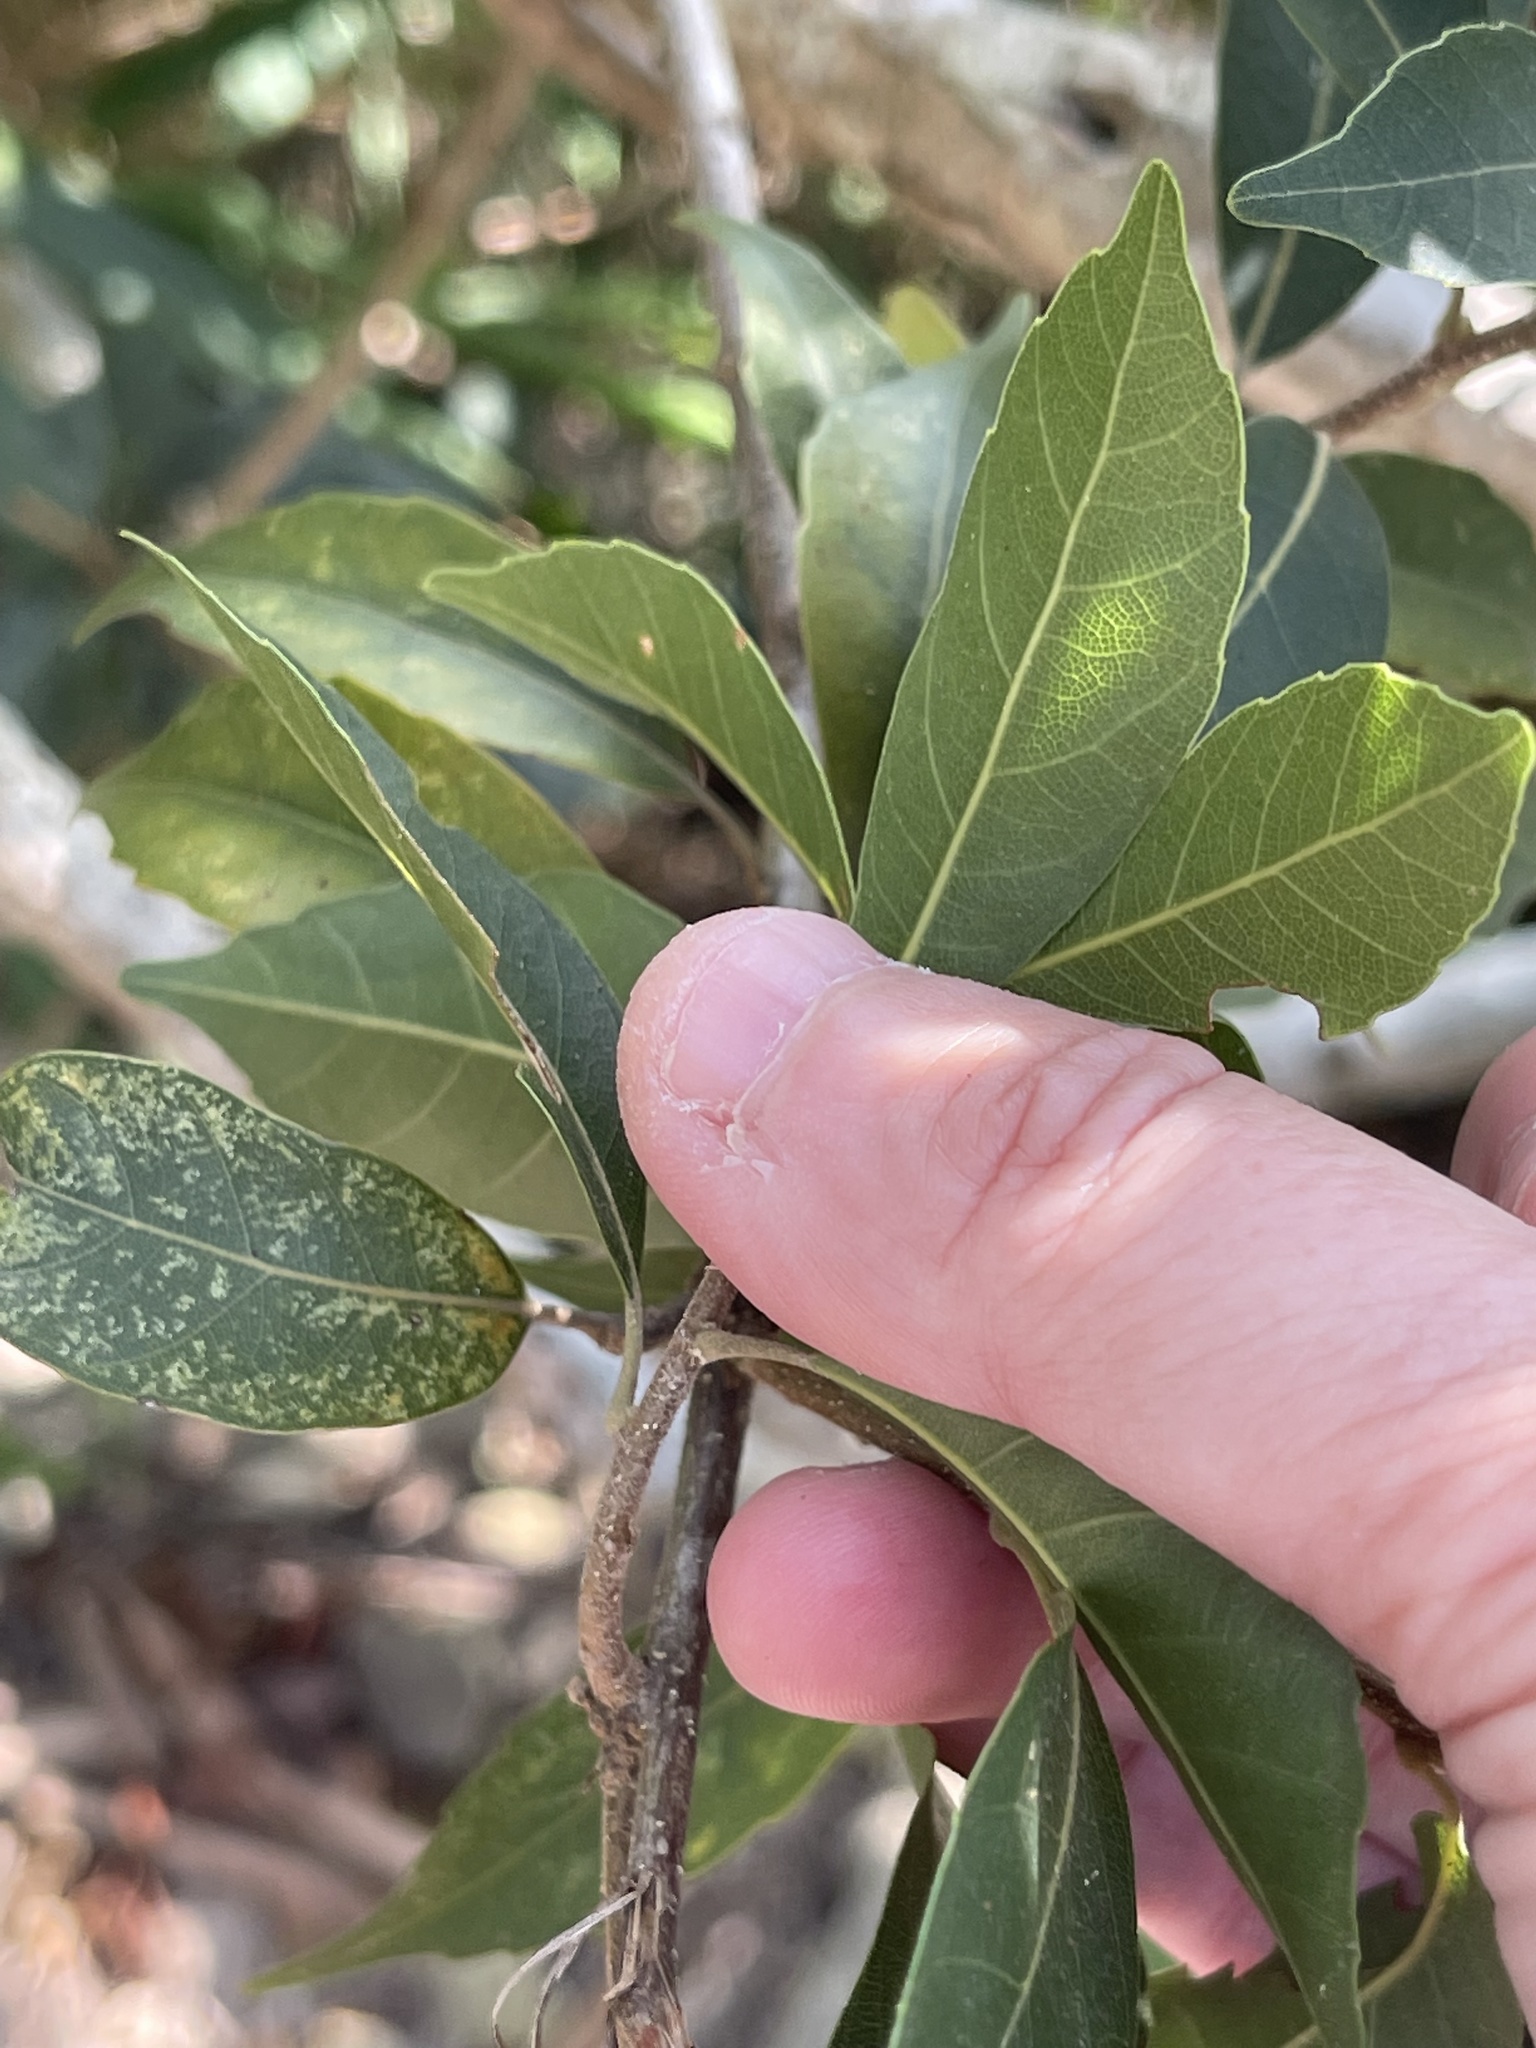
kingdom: Plantae
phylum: Tracheophyta
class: Magnoliopsida
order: Fagales
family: Fagaceae
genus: Lithocarpus
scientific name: Lithocarpus konishii
